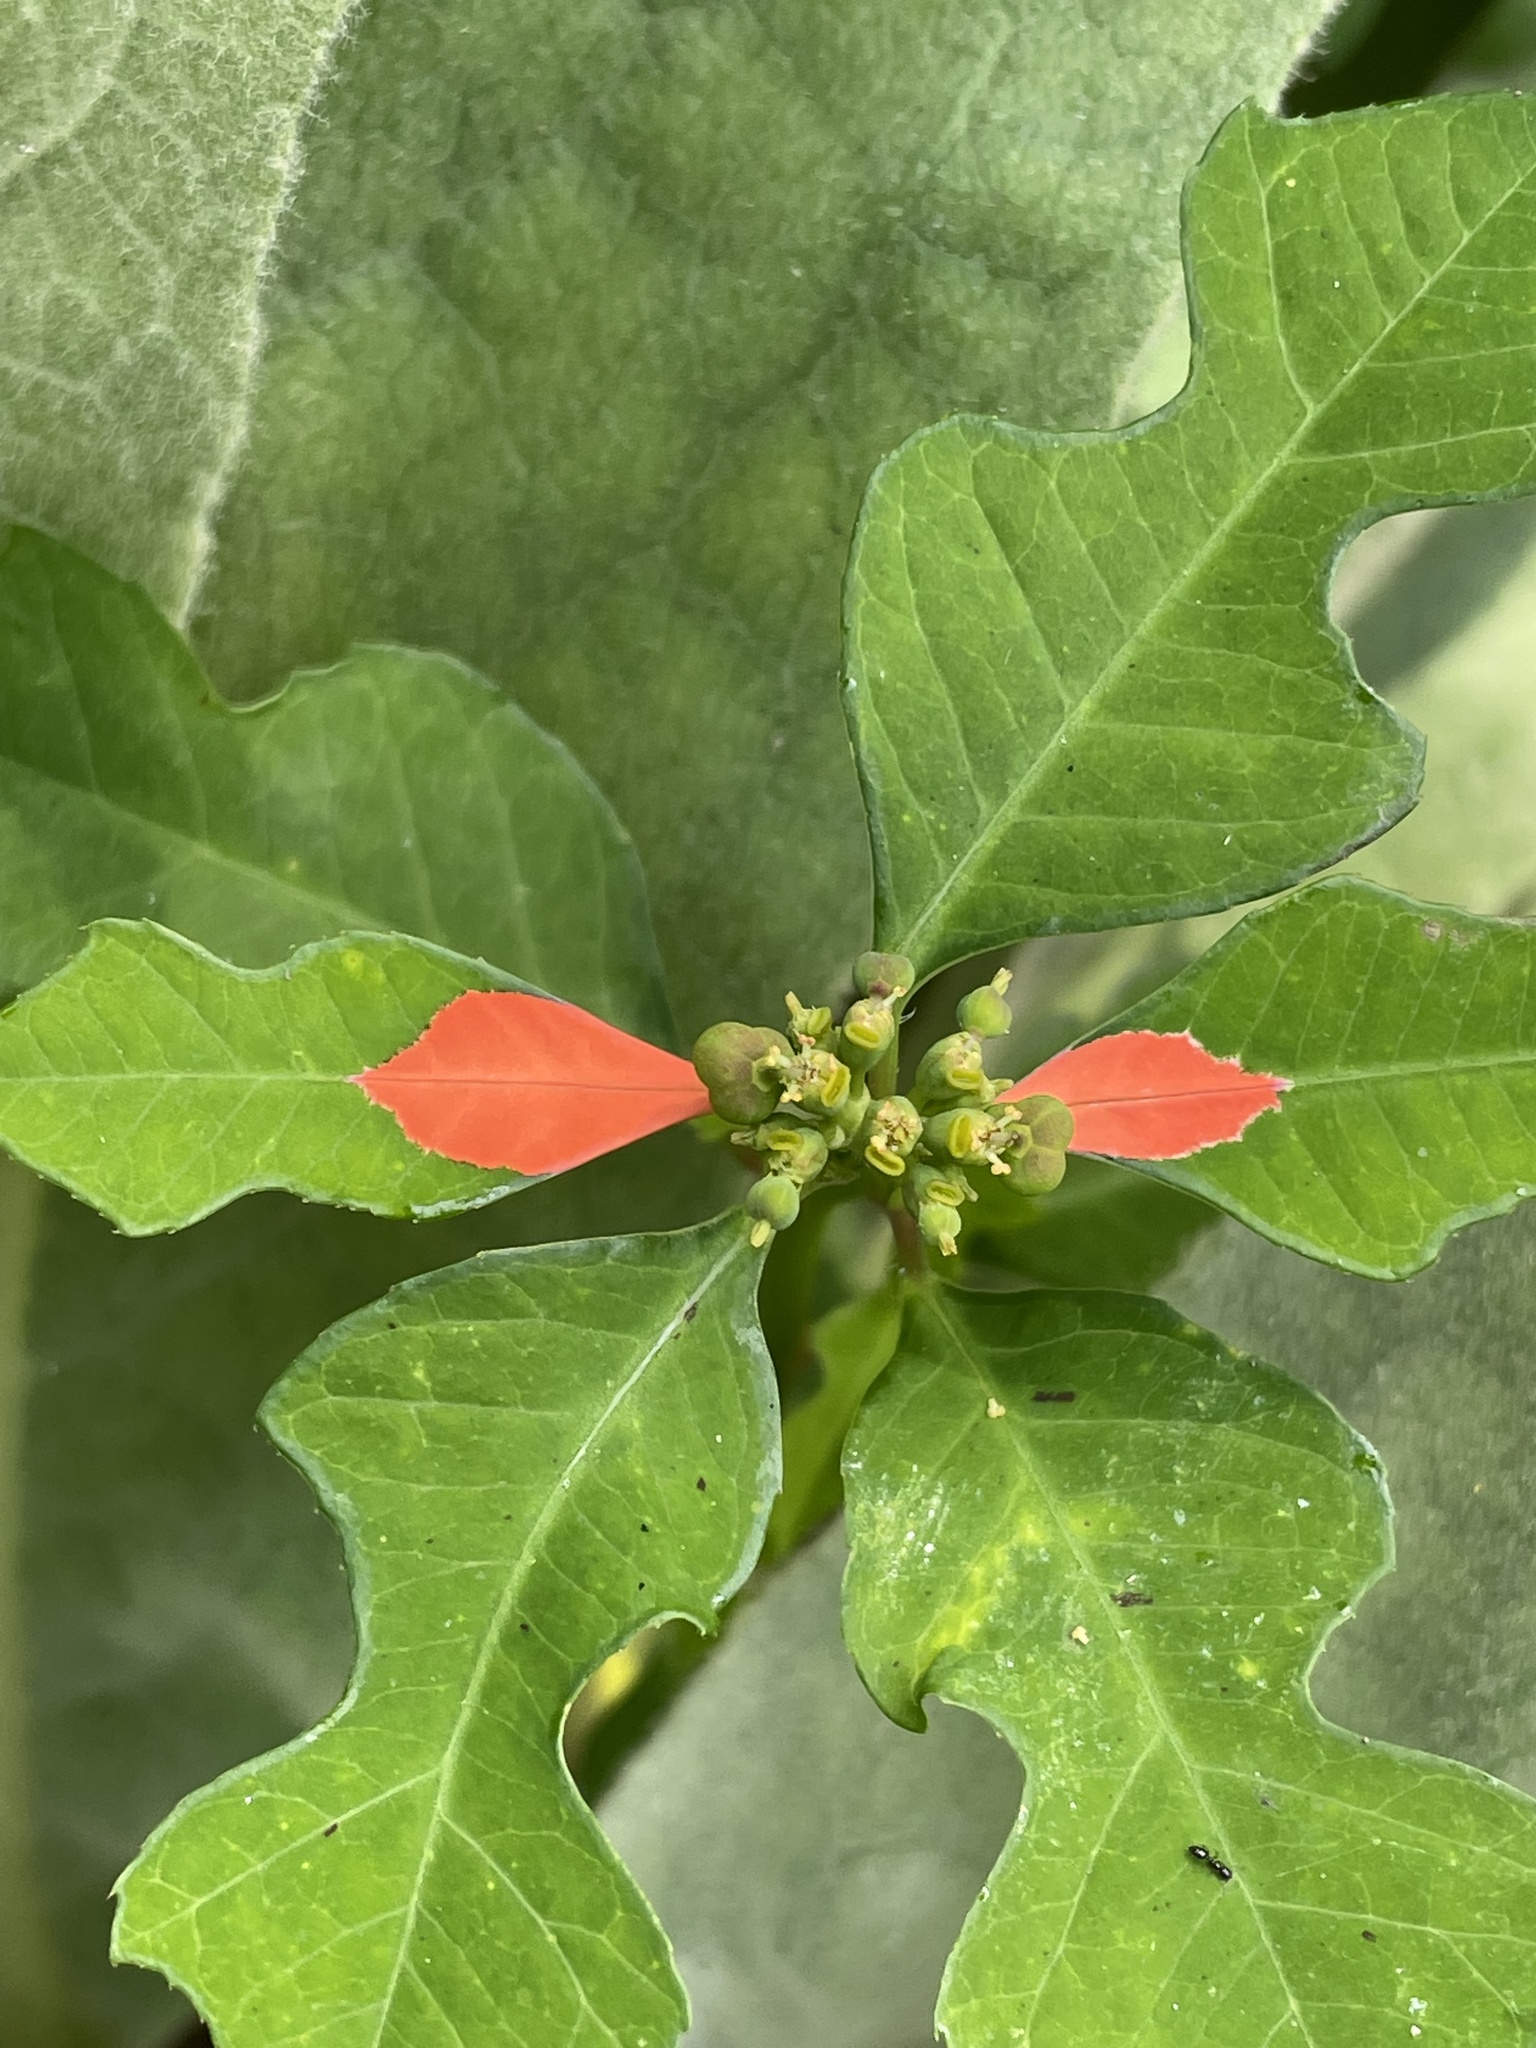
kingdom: Plantae
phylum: Tracheophyta
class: Magnoliopsida
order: Malpighiales
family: Euphorbiaceae
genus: Euphorbia
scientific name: Euphorbia heterophylla
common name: Mexican fireplant
